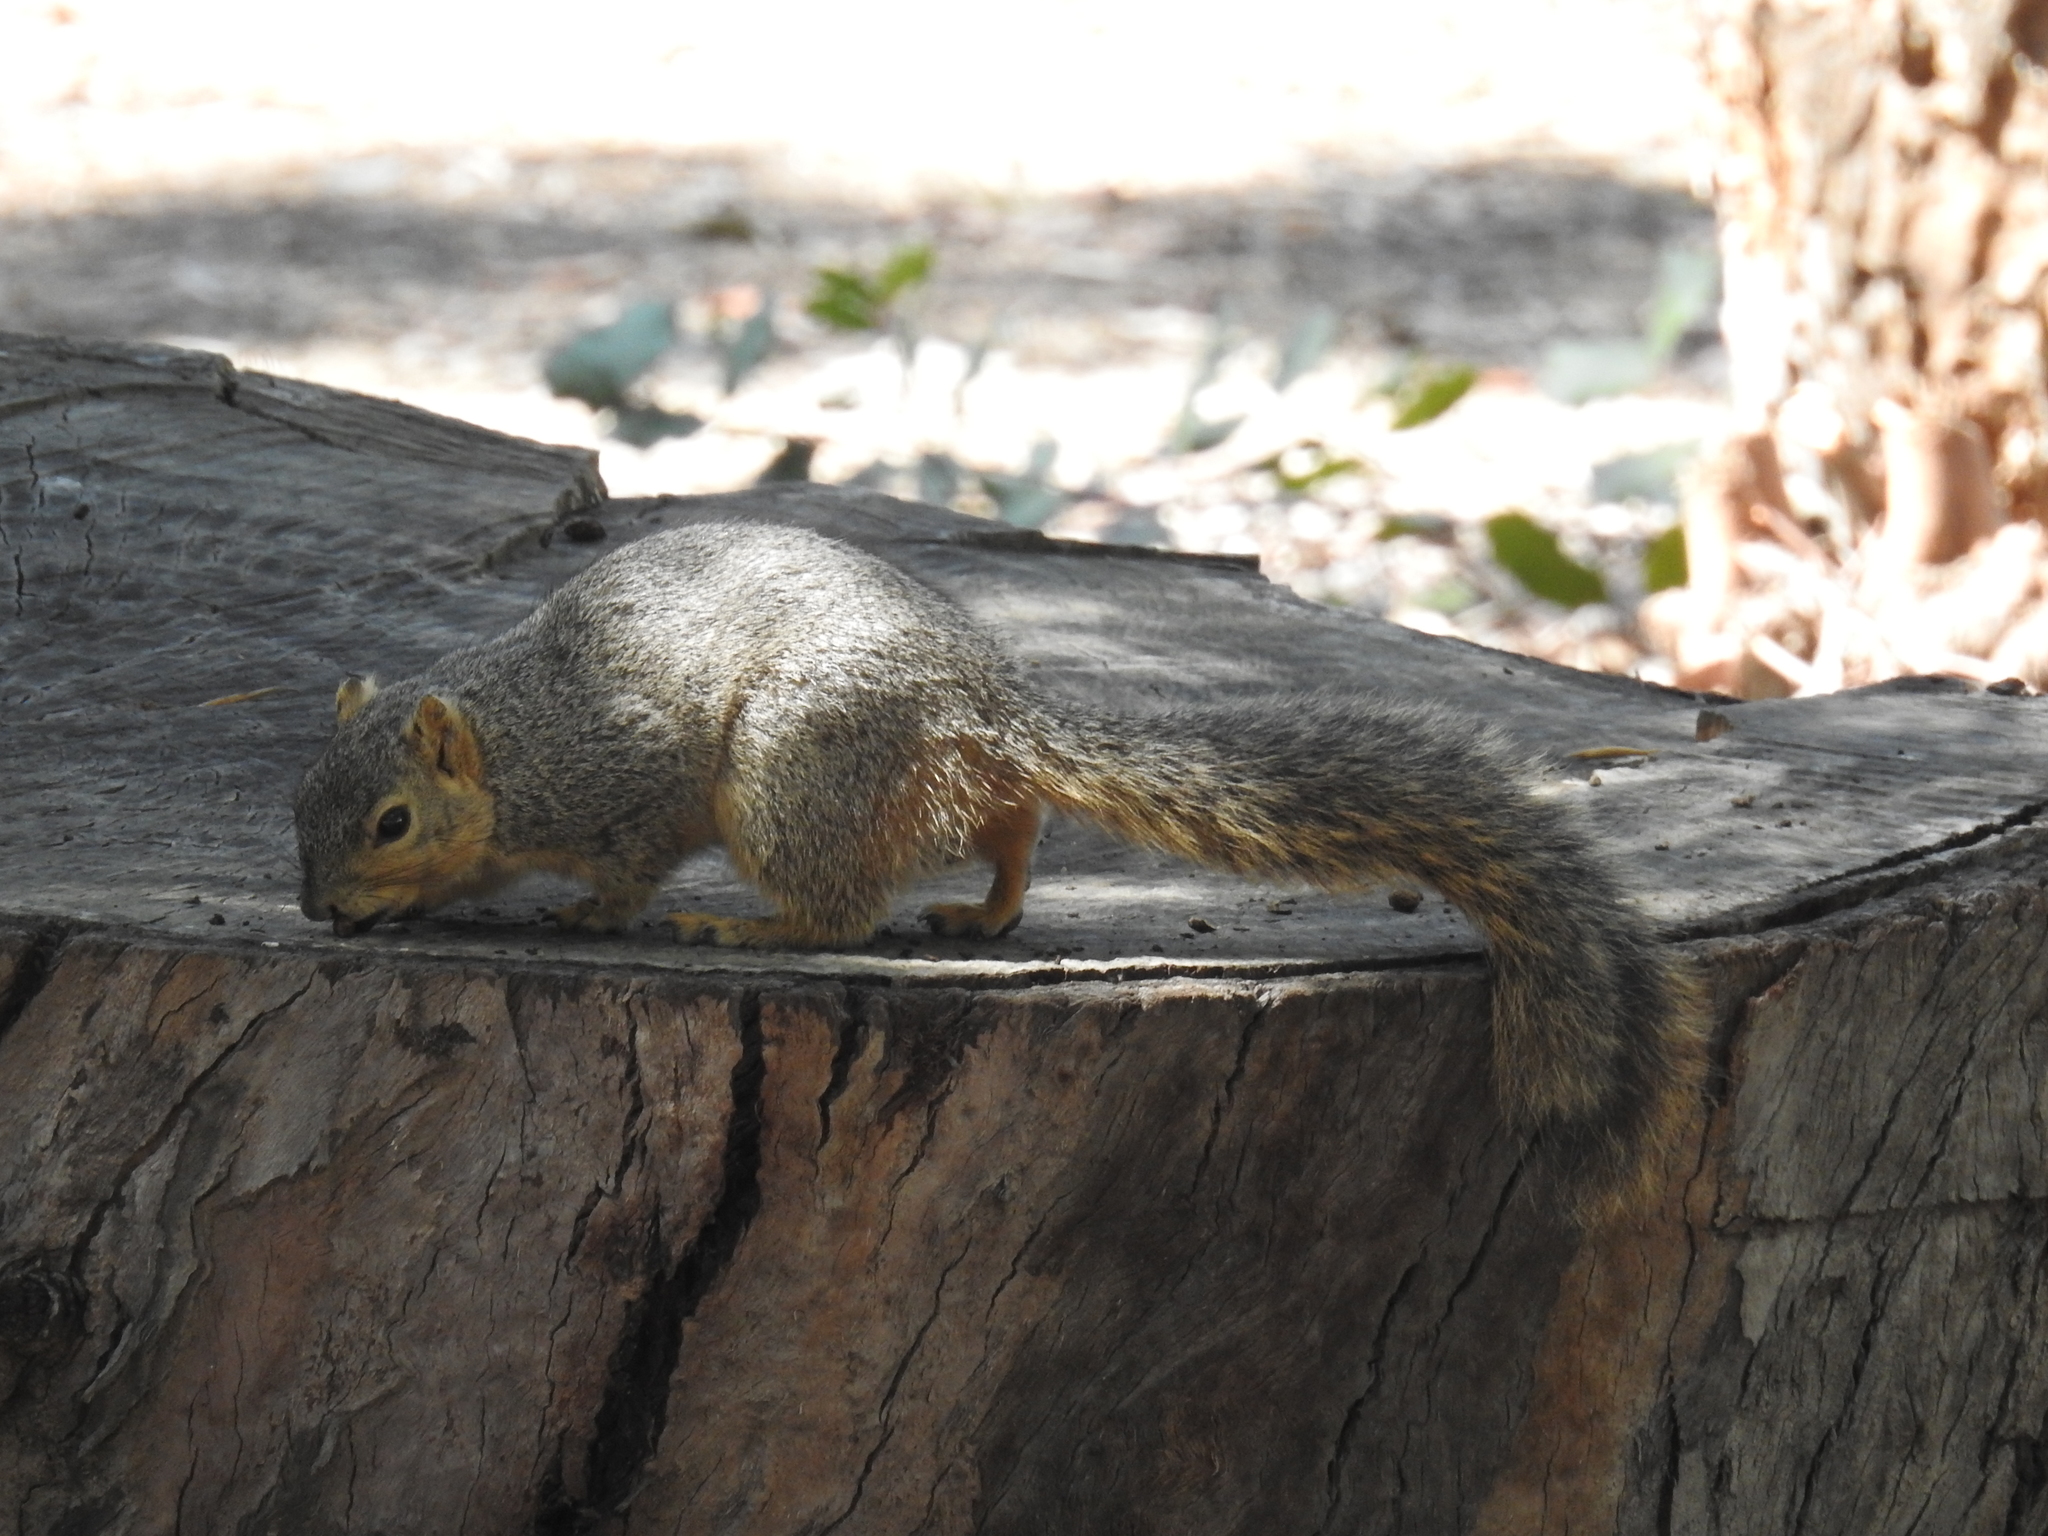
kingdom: Animalia
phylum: Chordata
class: Mammalia
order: Rodentia
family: Sciuridae
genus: Sciurus
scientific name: Sciurus niger
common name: Fox squirrel
